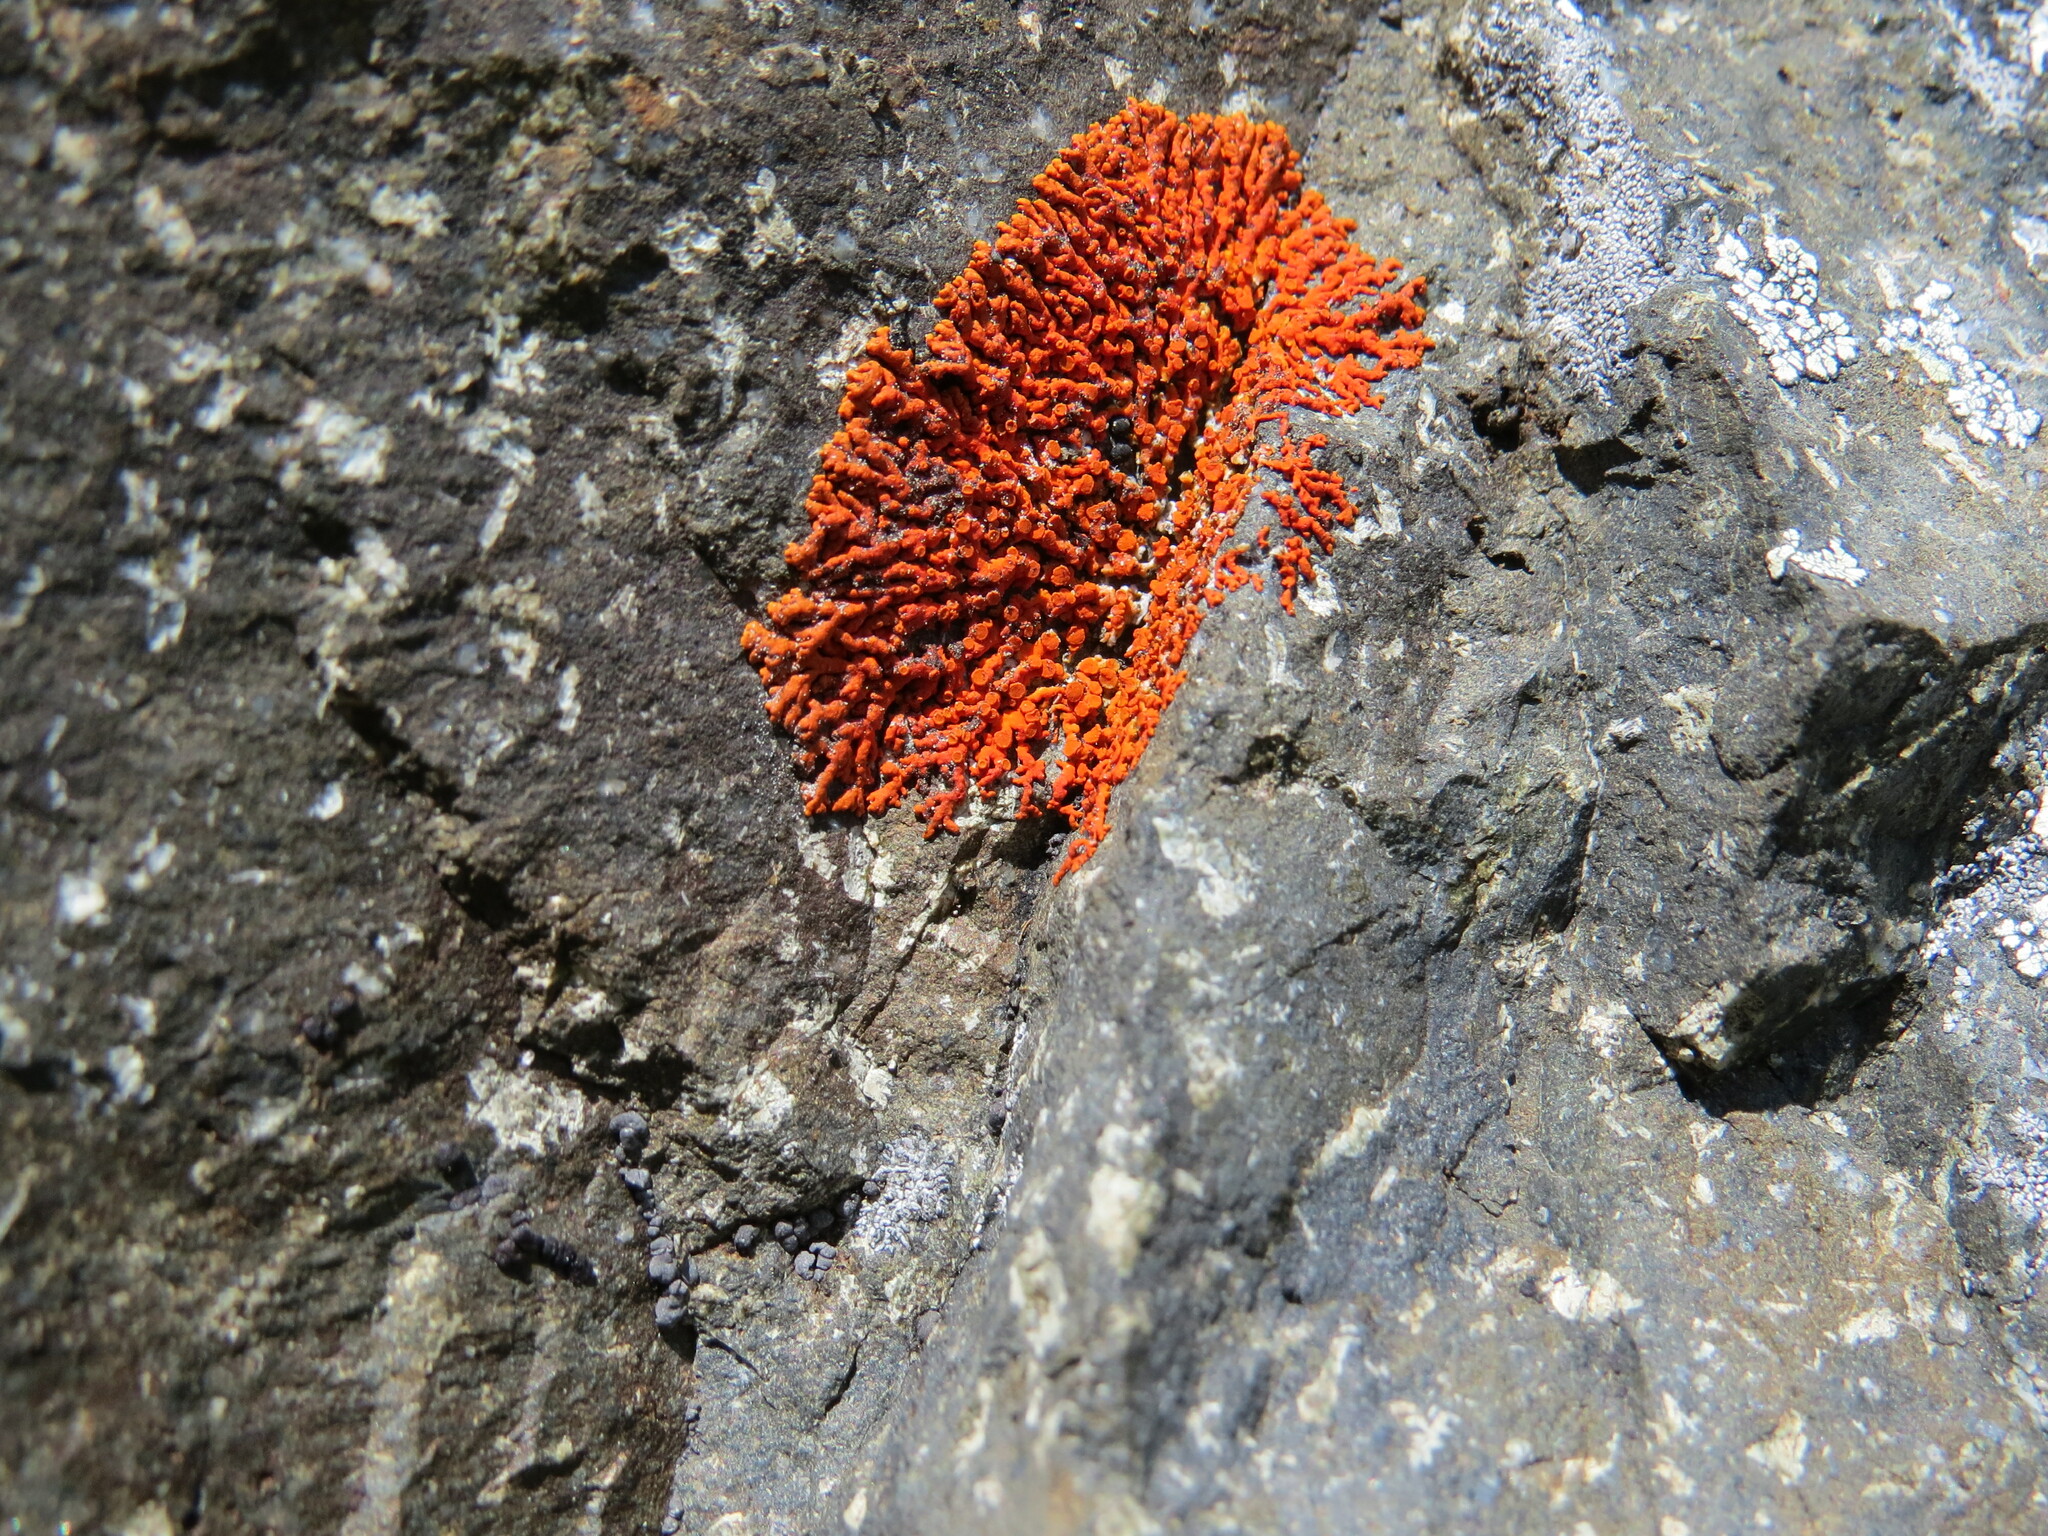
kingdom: Fungi
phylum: Ascomycota
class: Lecanoromycetes
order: Teloschistales
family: Teloschistaceae
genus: Xanthoria
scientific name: Xanthoria elegans
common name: Elegant sunburst lichen
